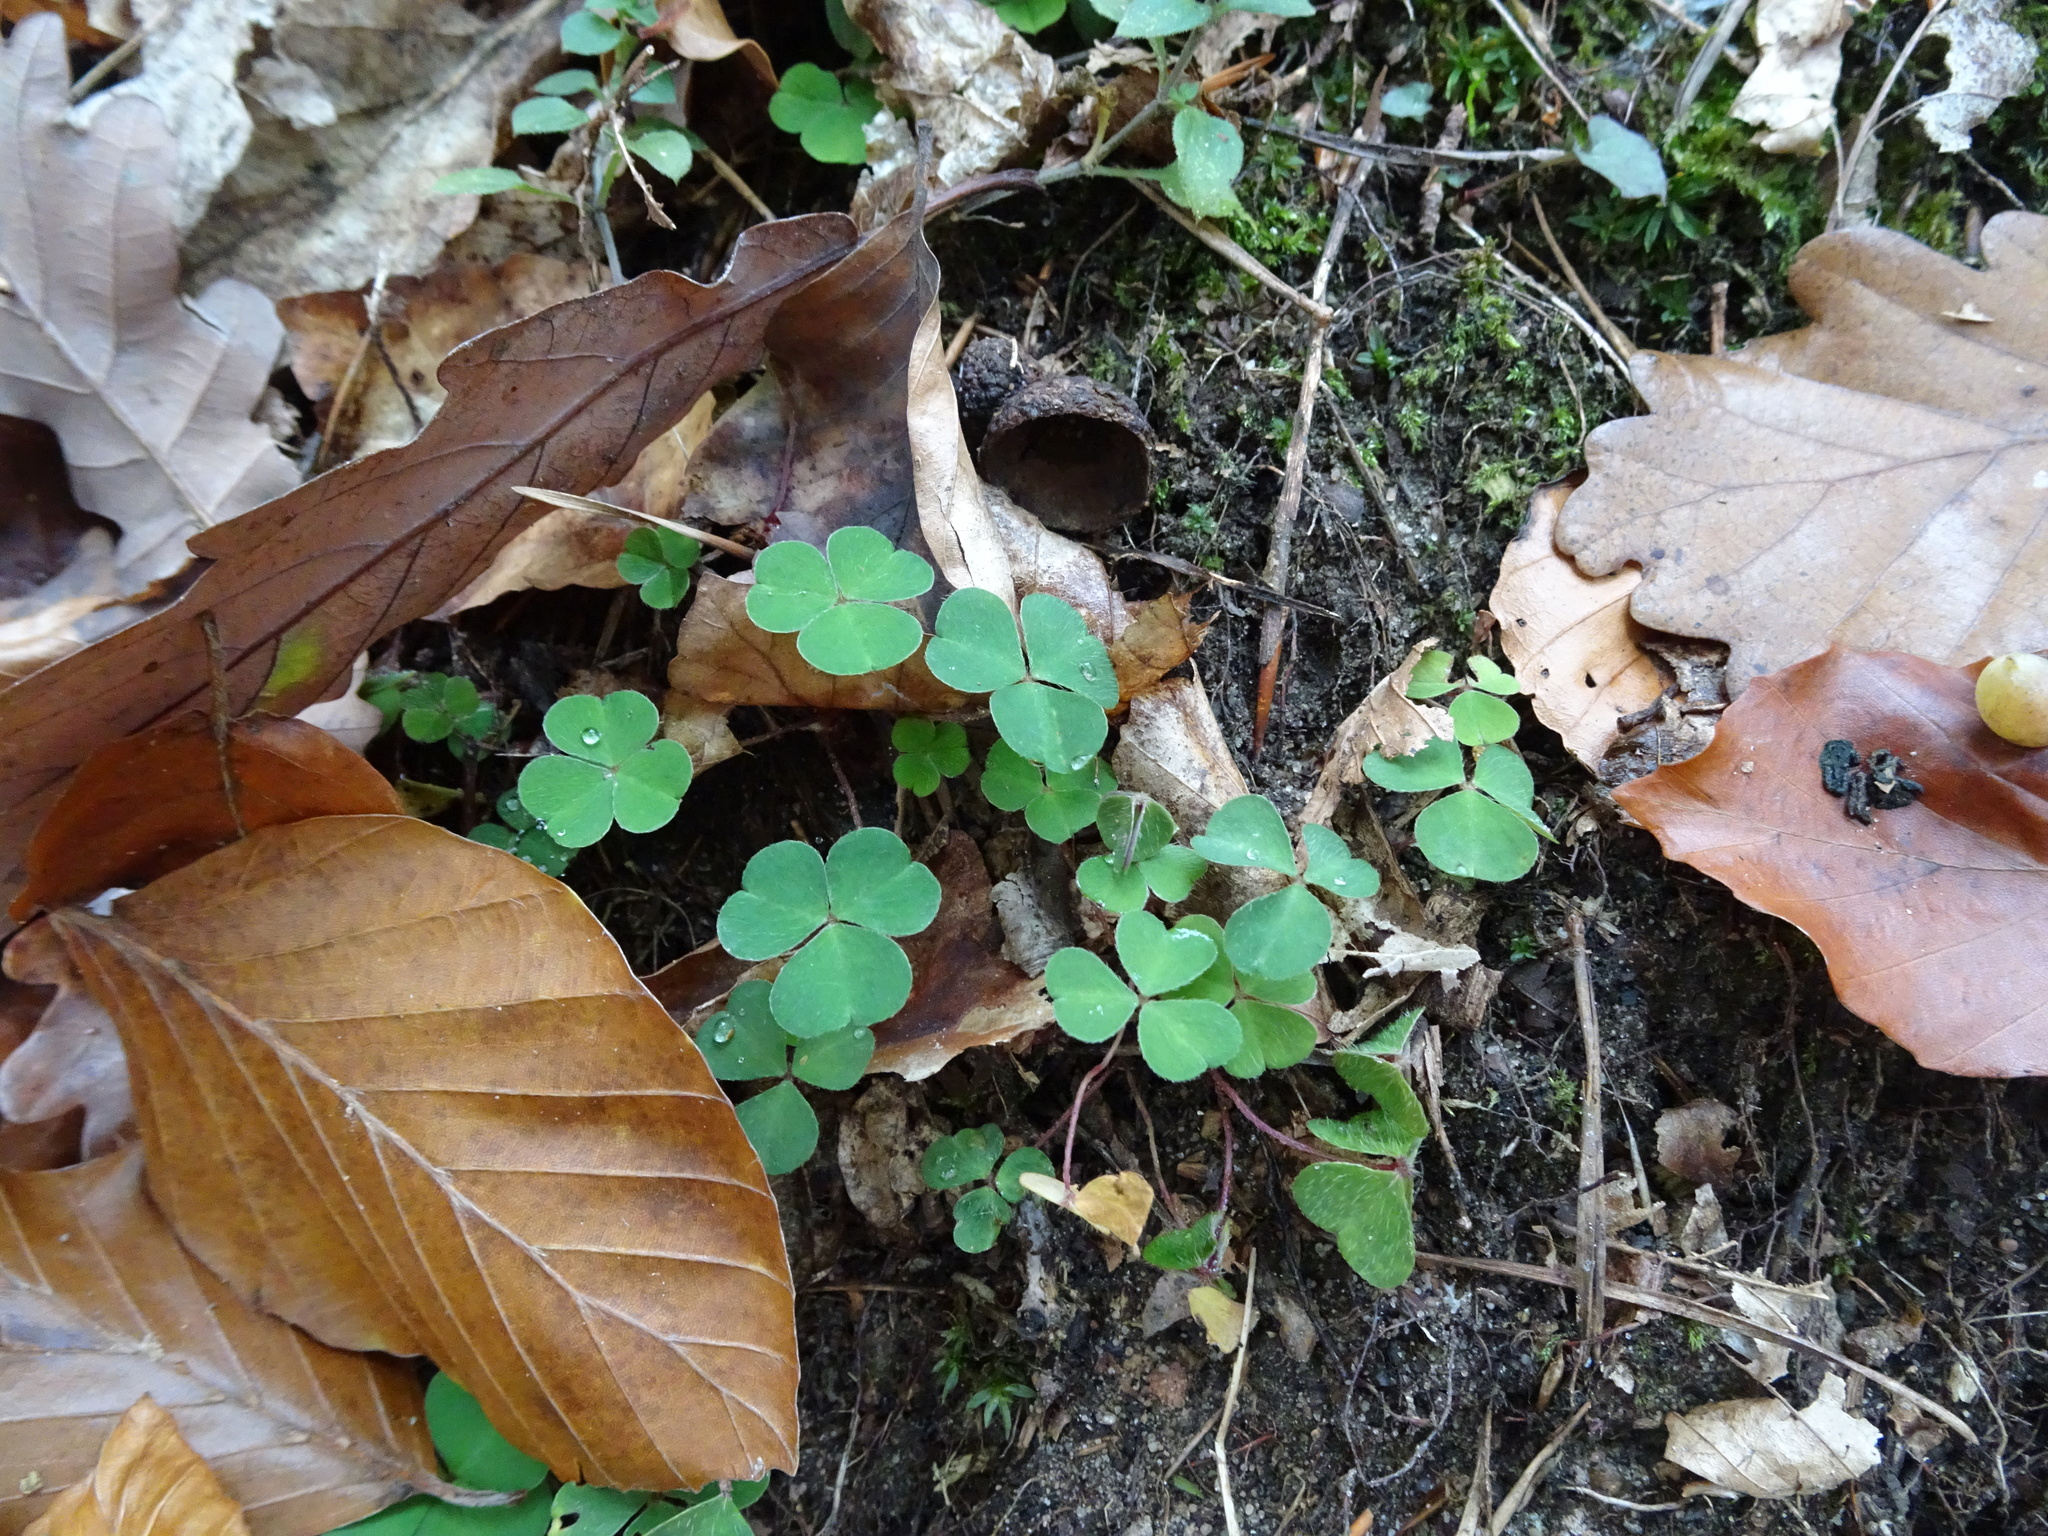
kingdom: Plantae
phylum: Tracheophyta
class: Magnoliopsida
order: Oxalidales
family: Oxalidaceae
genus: Oxalis
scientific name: Oxalis acetosella
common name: Wood-sorrel
